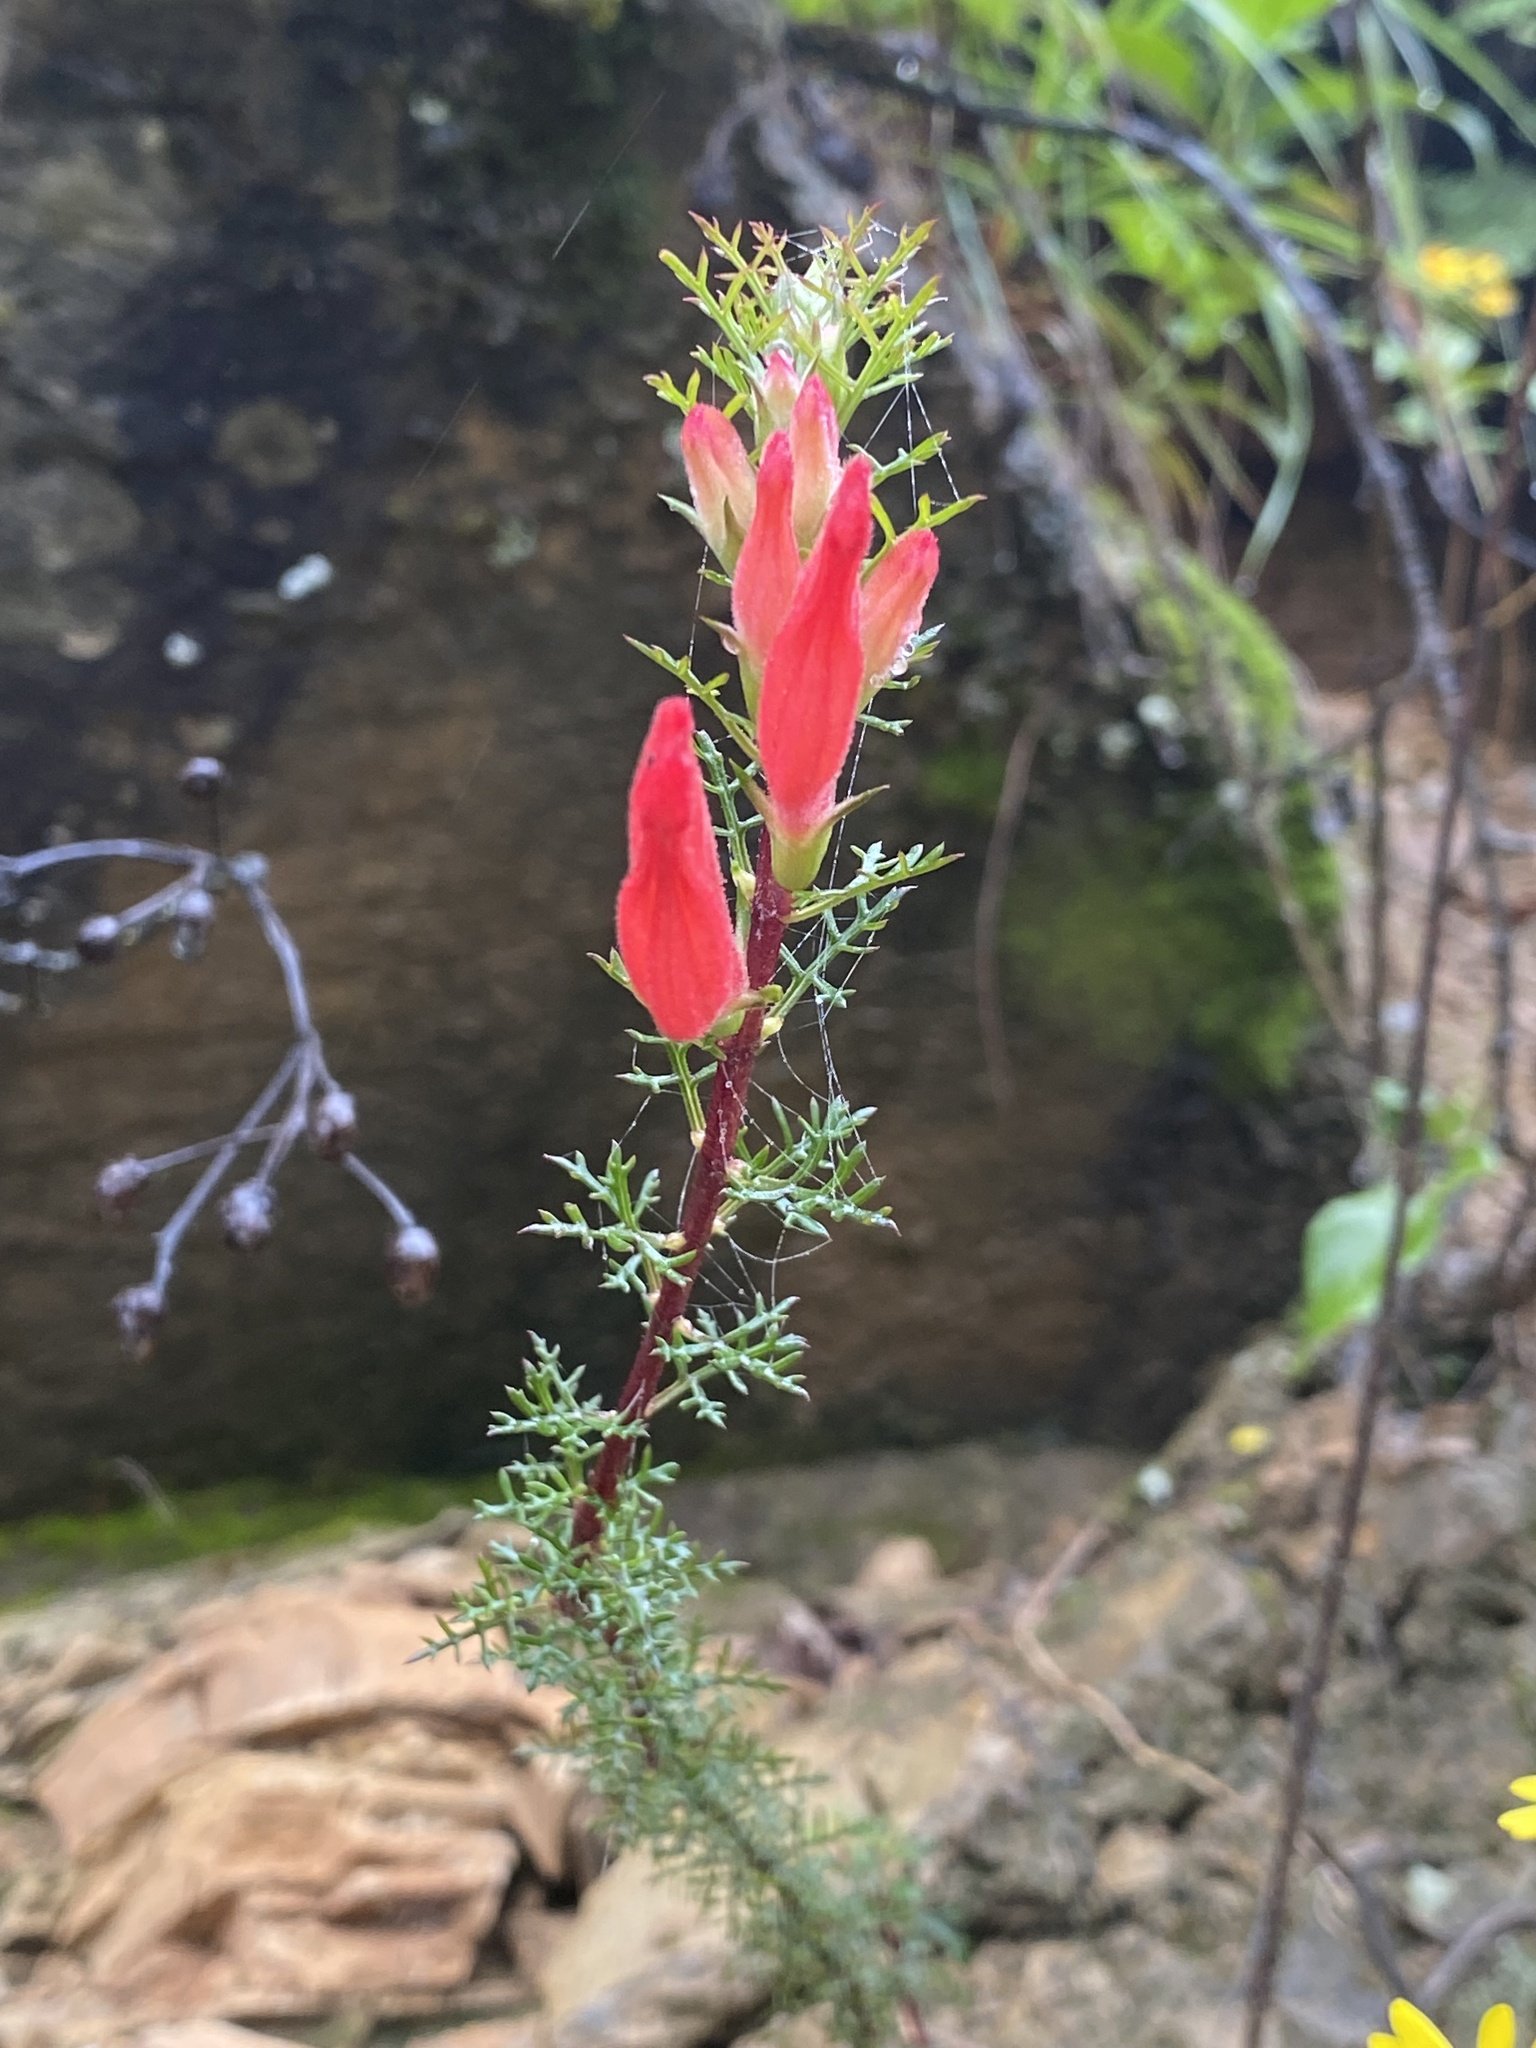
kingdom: Plantae
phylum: Tracheophyta
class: Magnoliopsida
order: Lamiales
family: Orobanchaceae
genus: Lamourouxia
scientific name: Lamourouxia multifida
